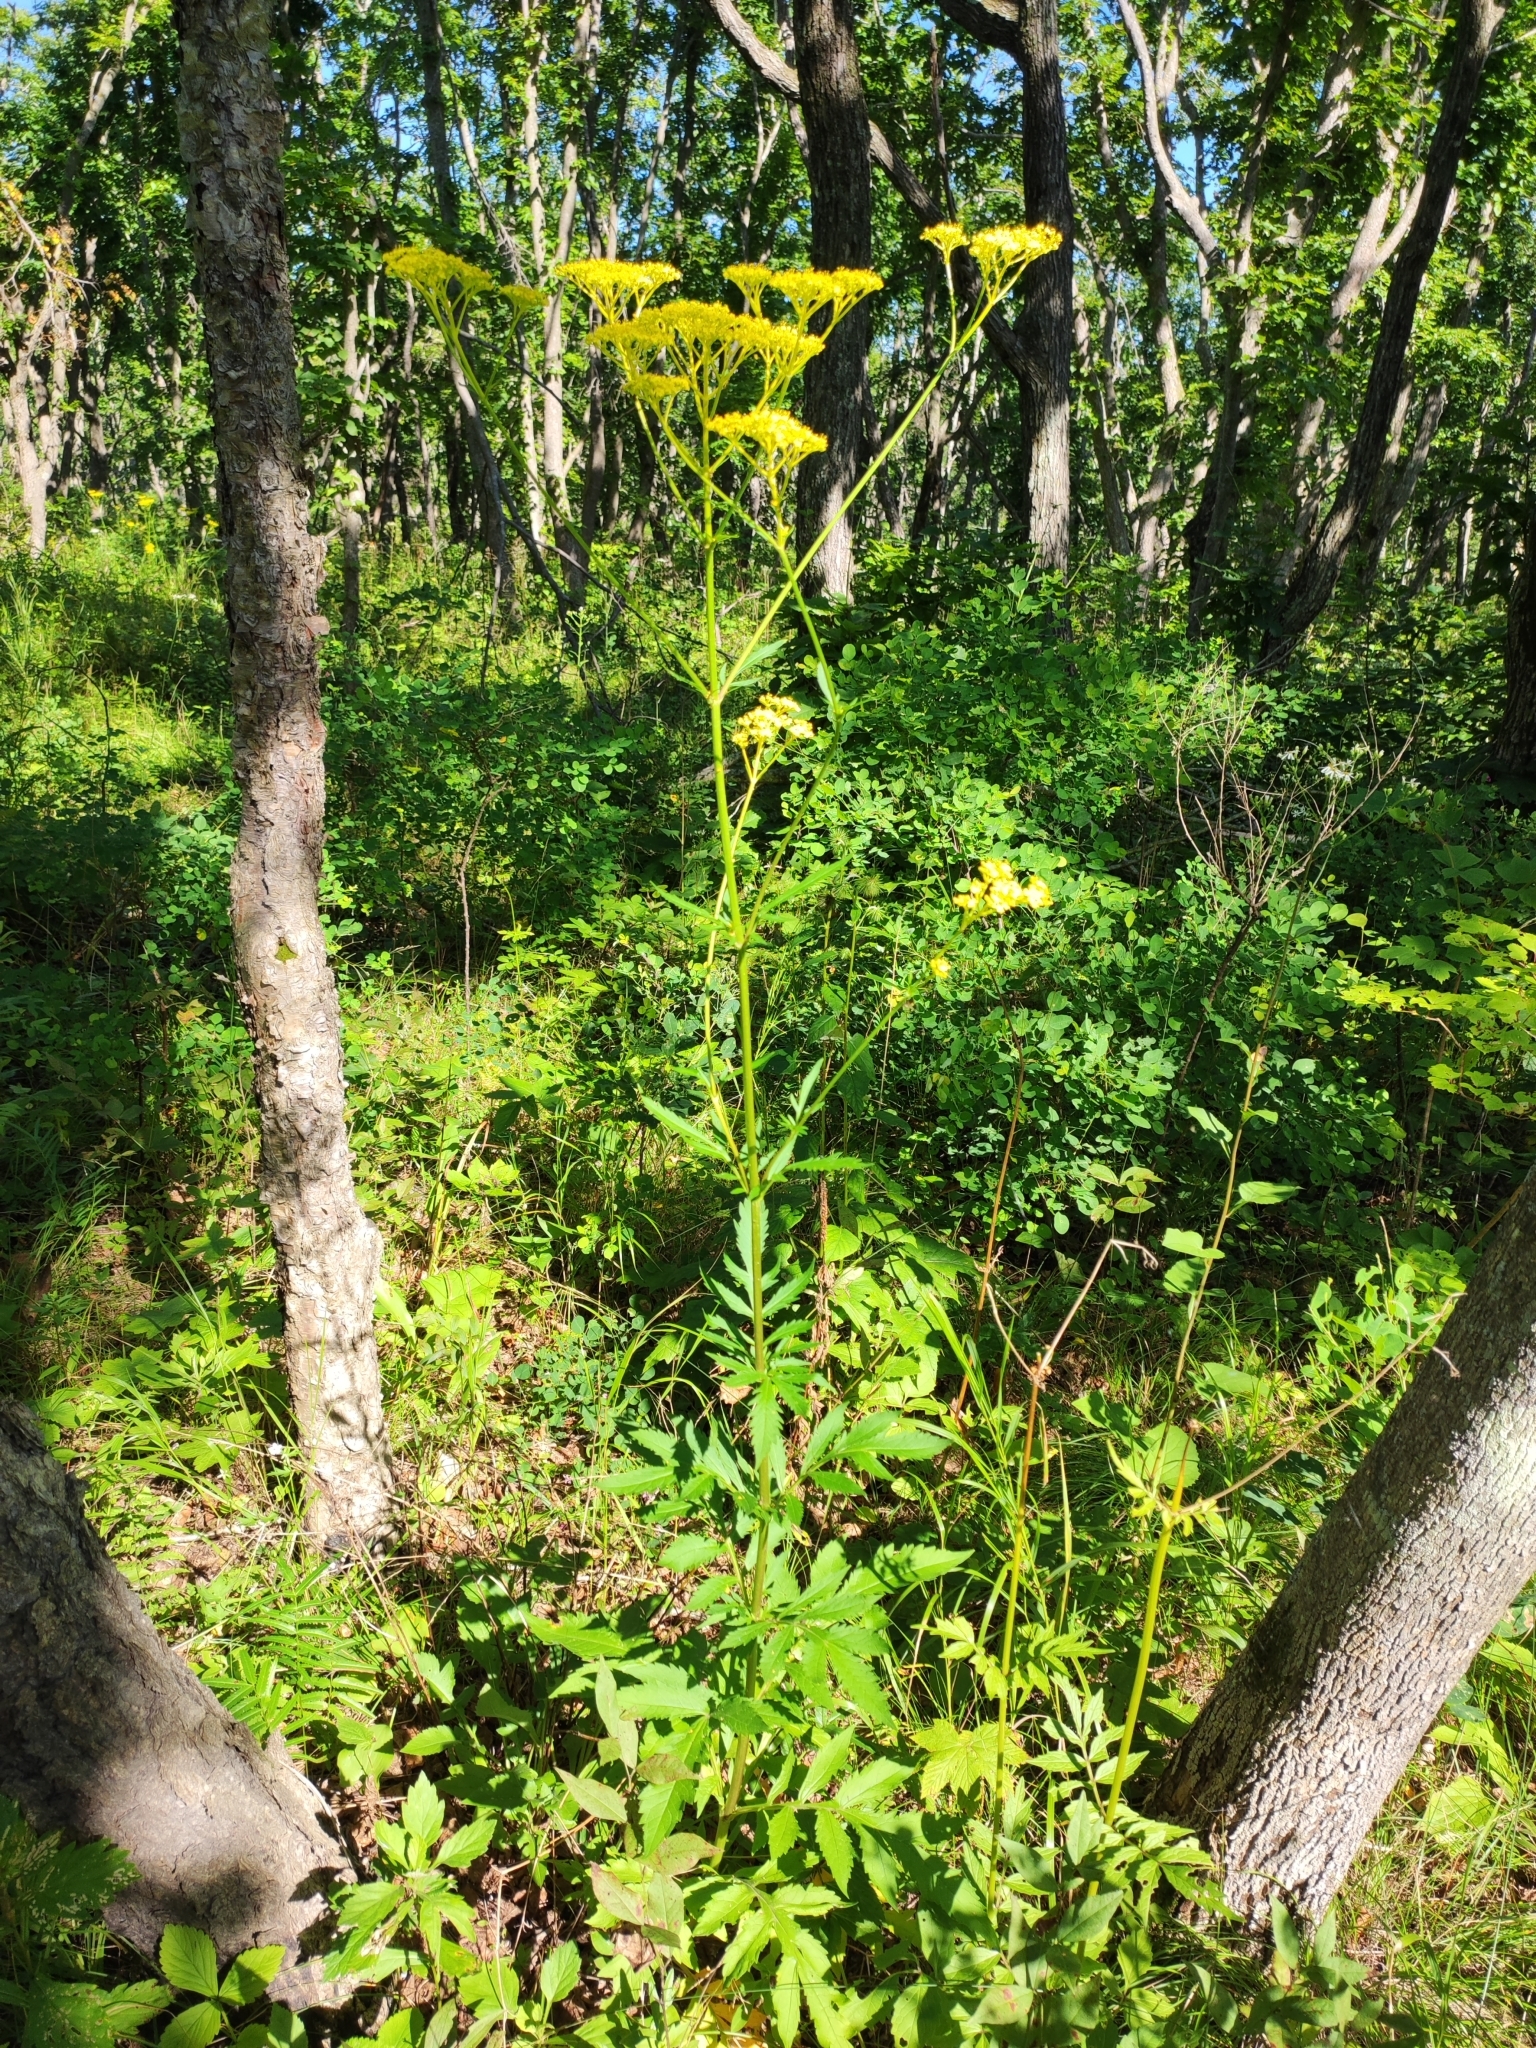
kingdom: Plantae
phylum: Tracheophyta
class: Magnoliopsida
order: Dipsacales
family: Caprifoliaceae
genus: Patrinia
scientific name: Patrinia scabiosifolia
